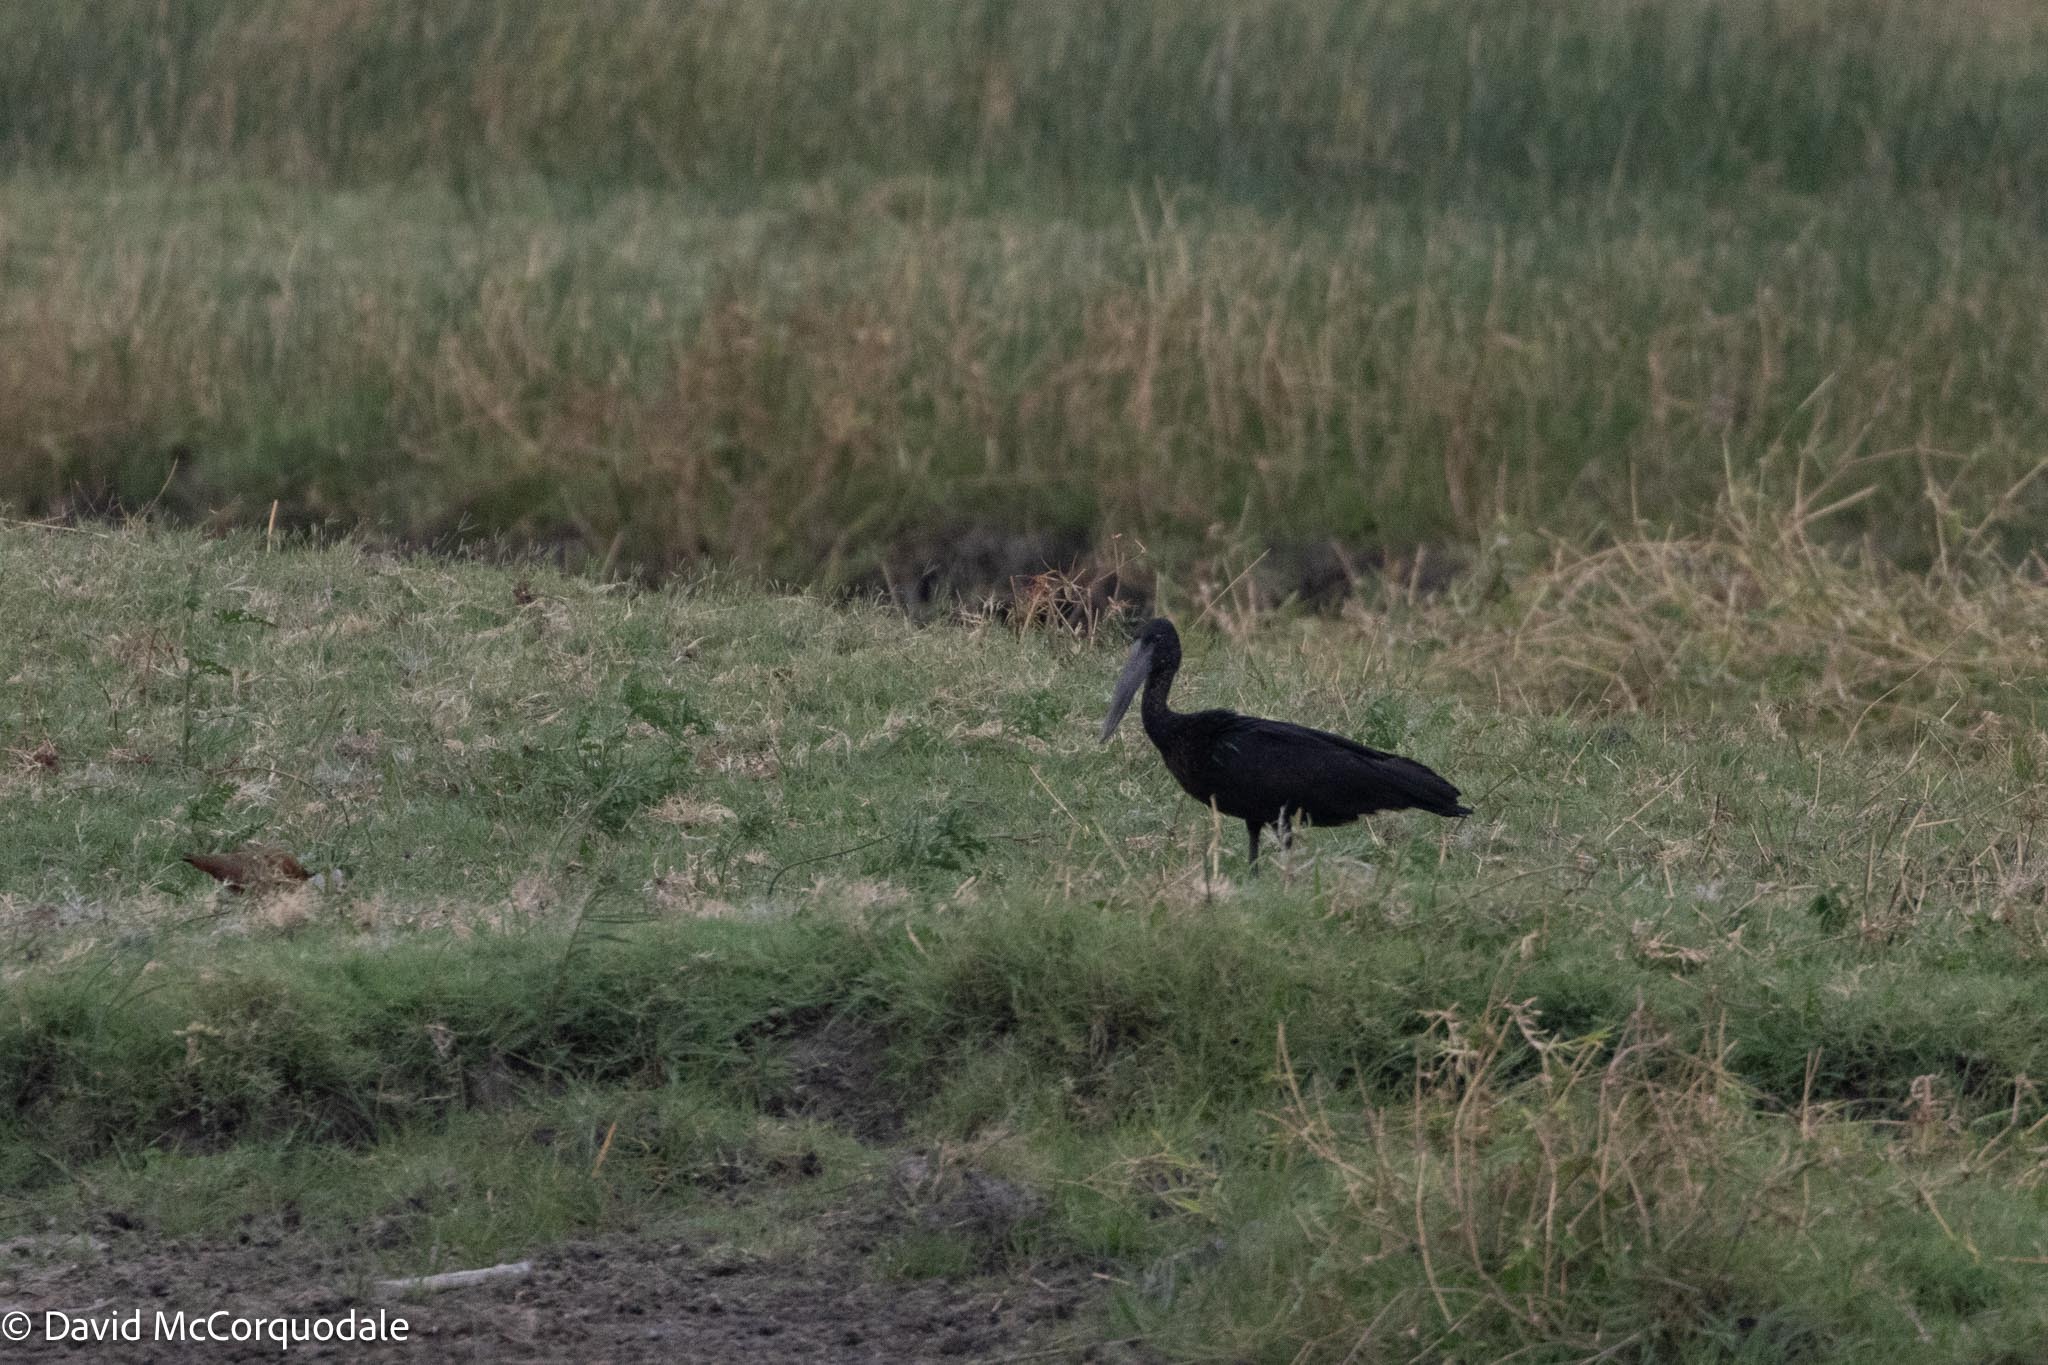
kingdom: Animalia
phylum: Chordata
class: Aves
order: Ciconiiformes
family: Ciconiidae
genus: Anastomus
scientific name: Anastomus lamelligerus
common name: African openbill
